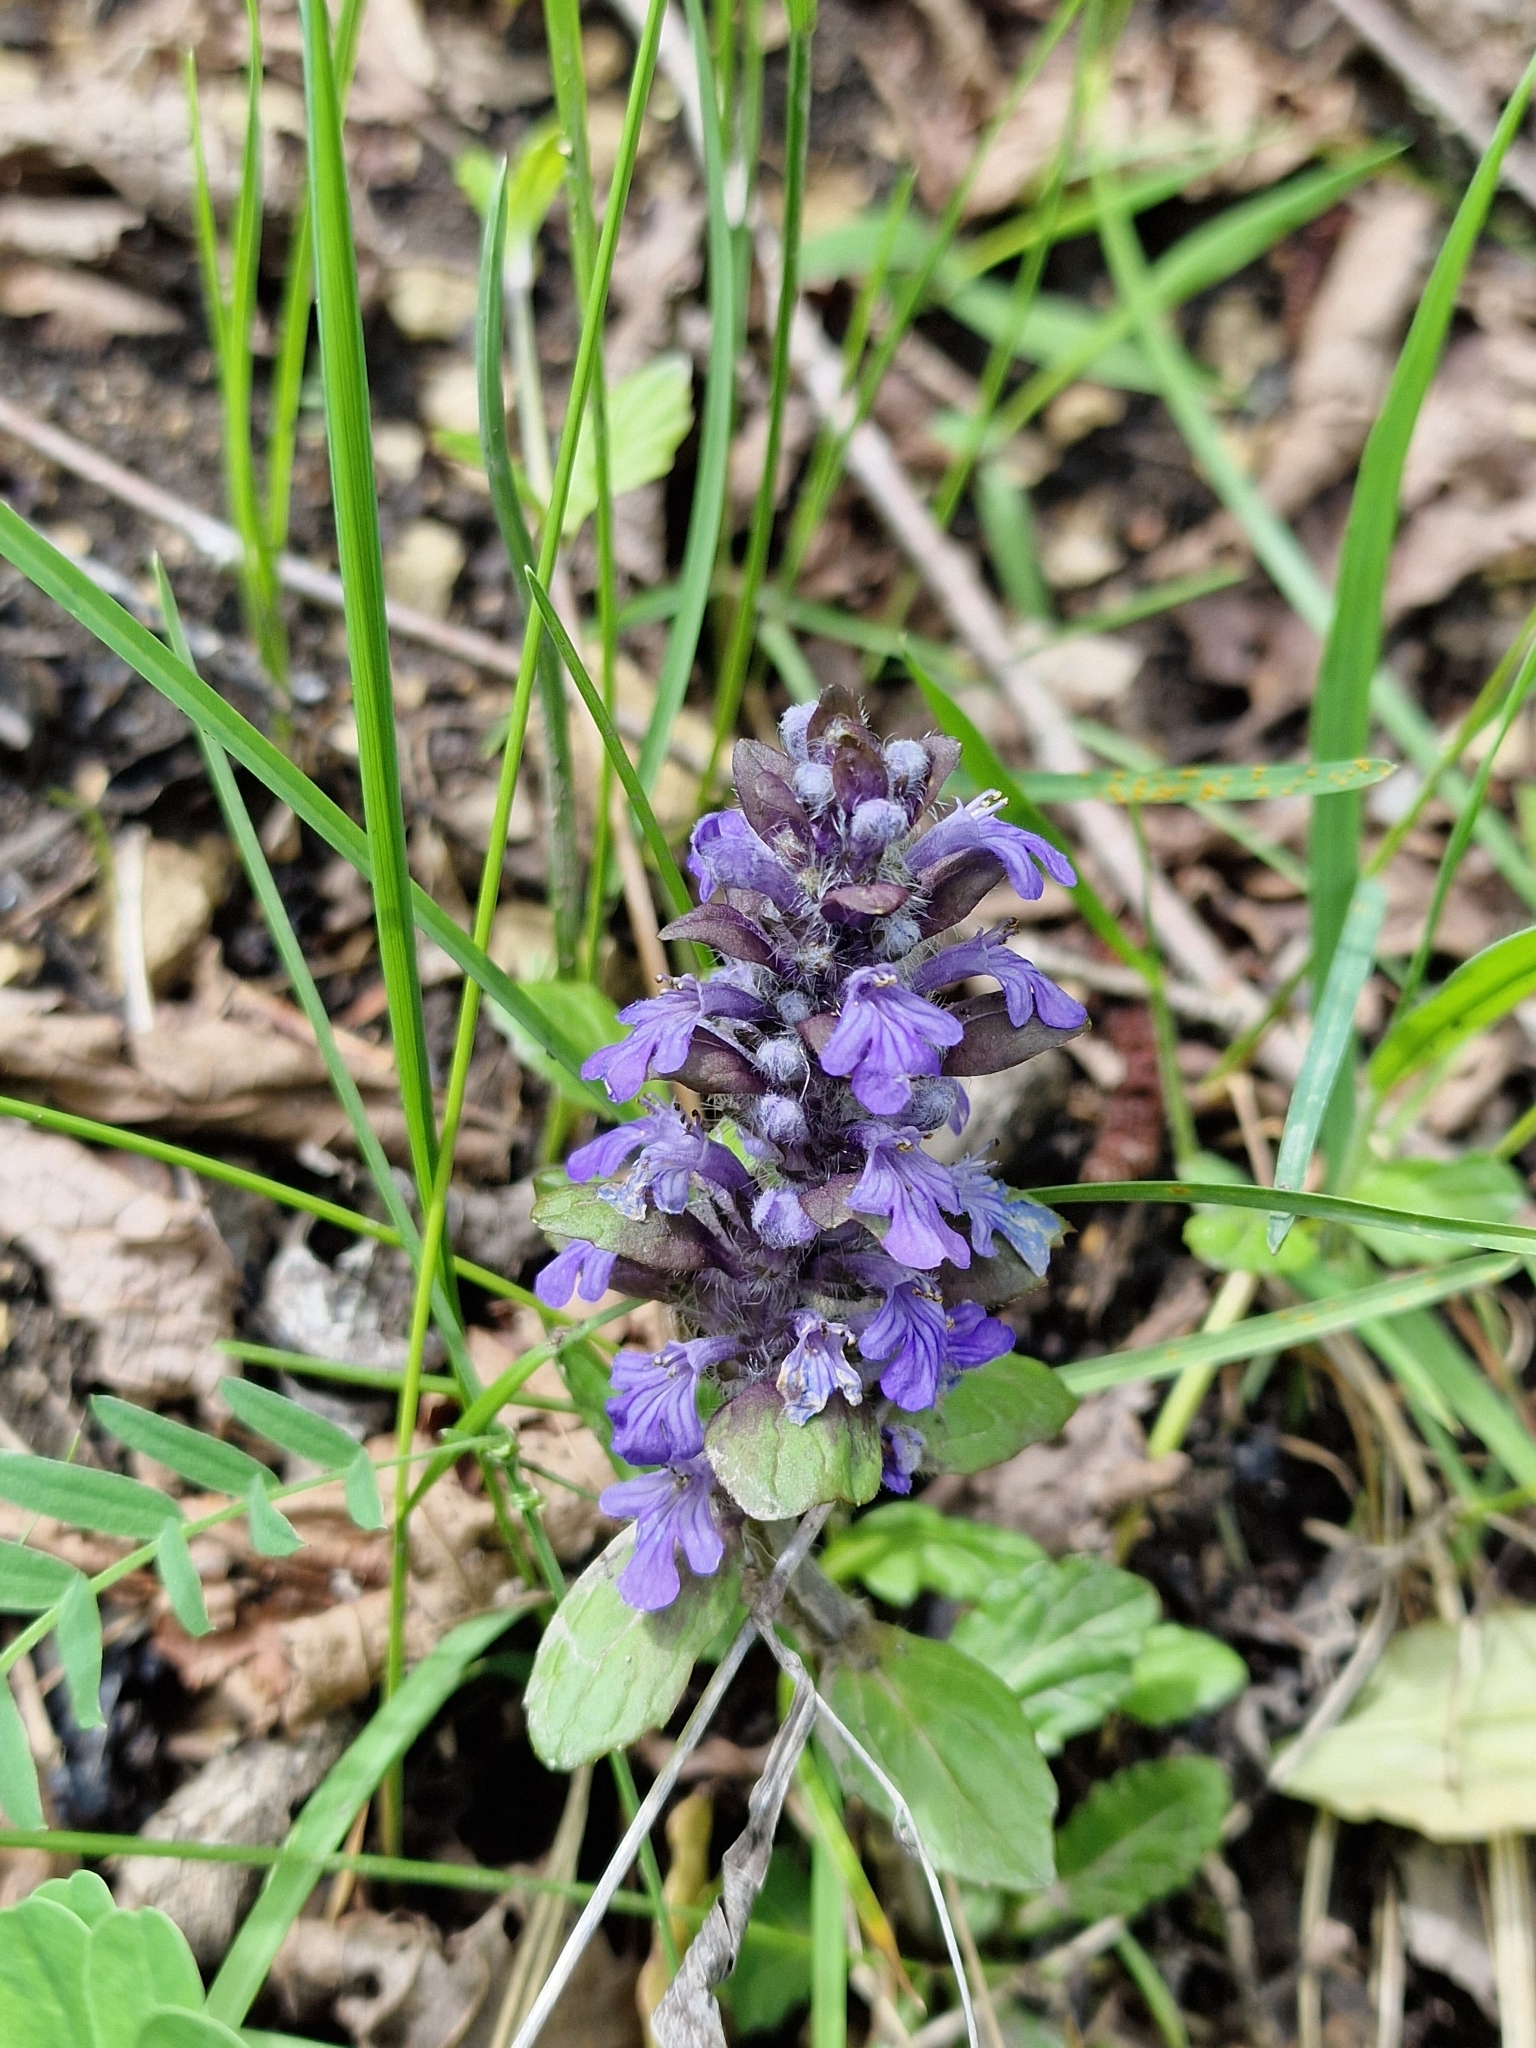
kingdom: Plantae
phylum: Tracheophyta
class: Magnoliopsida
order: Lamiales
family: Lamiaceae
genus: Ajuga
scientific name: Ajuga reptans
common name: Bugle
